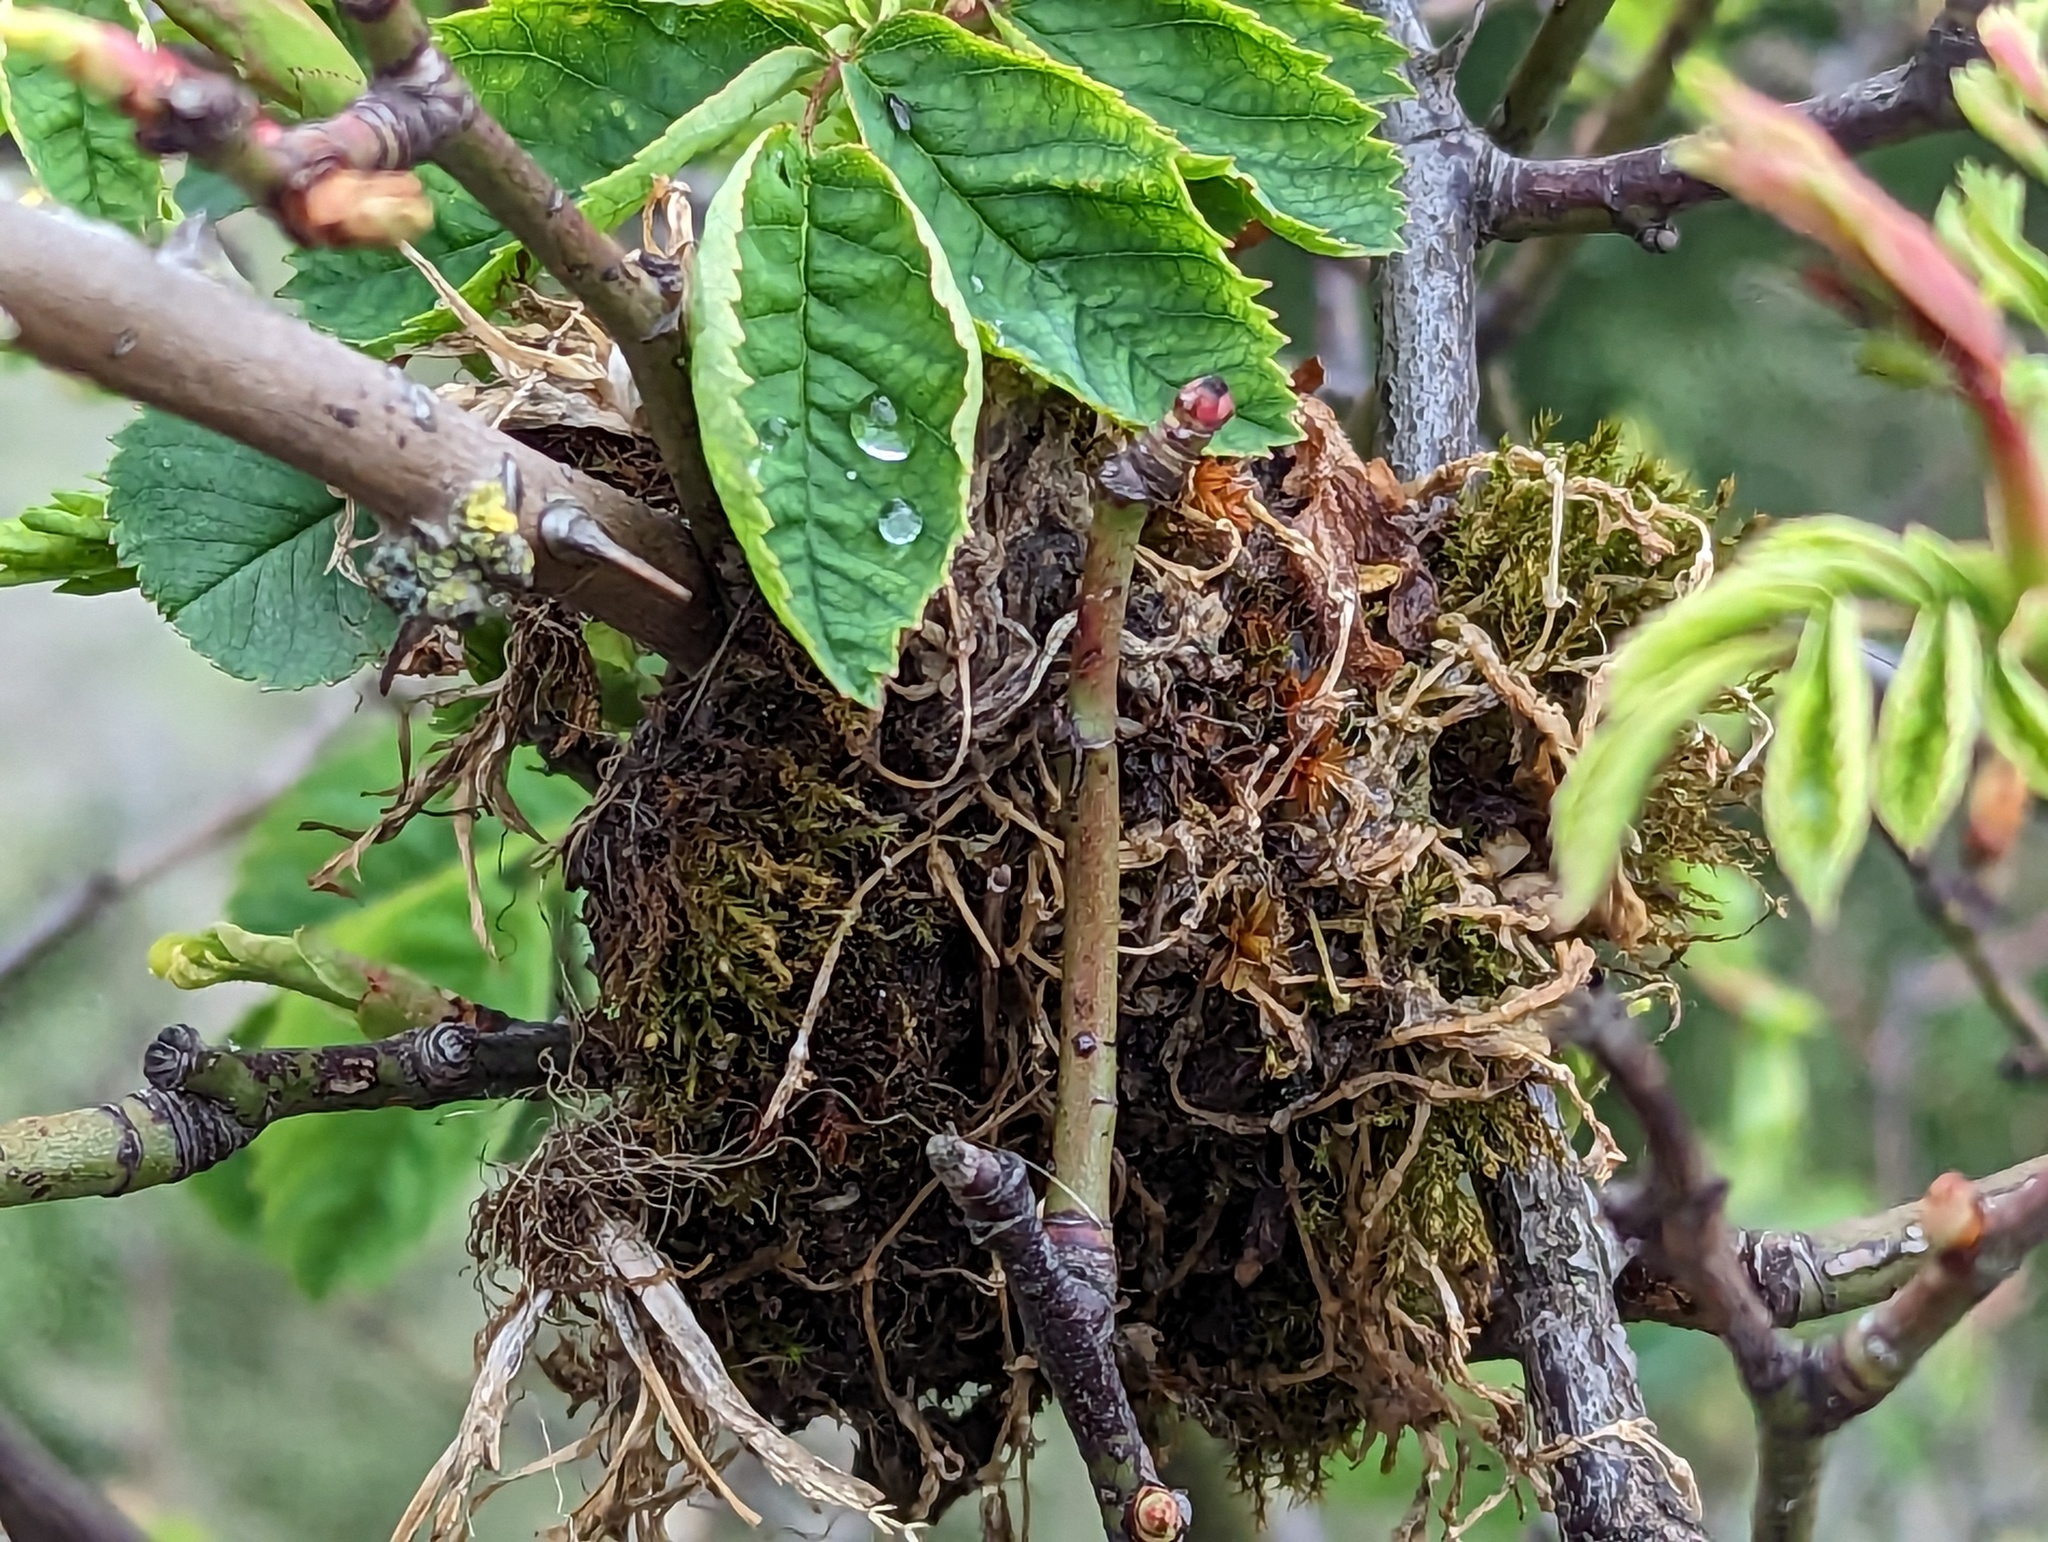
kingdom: Animalia
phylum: Arthropoda
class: Insecta
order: Hymenoptera
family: Cynipidae
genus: Diplolepis
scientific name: Diplolepis rosae
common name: Bedeguar gall
